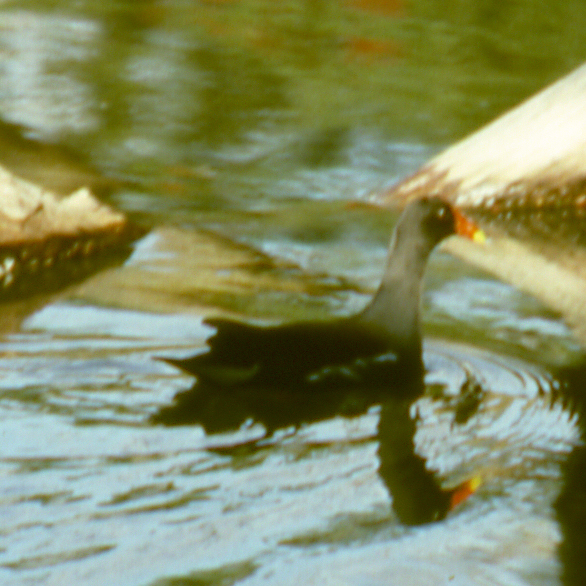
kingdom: Animalia
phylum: Chordata
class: Aves
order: Gruiformes
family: Rallidae
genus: Gallinula
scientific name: Gallinula chloropus
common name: Common moorhen
